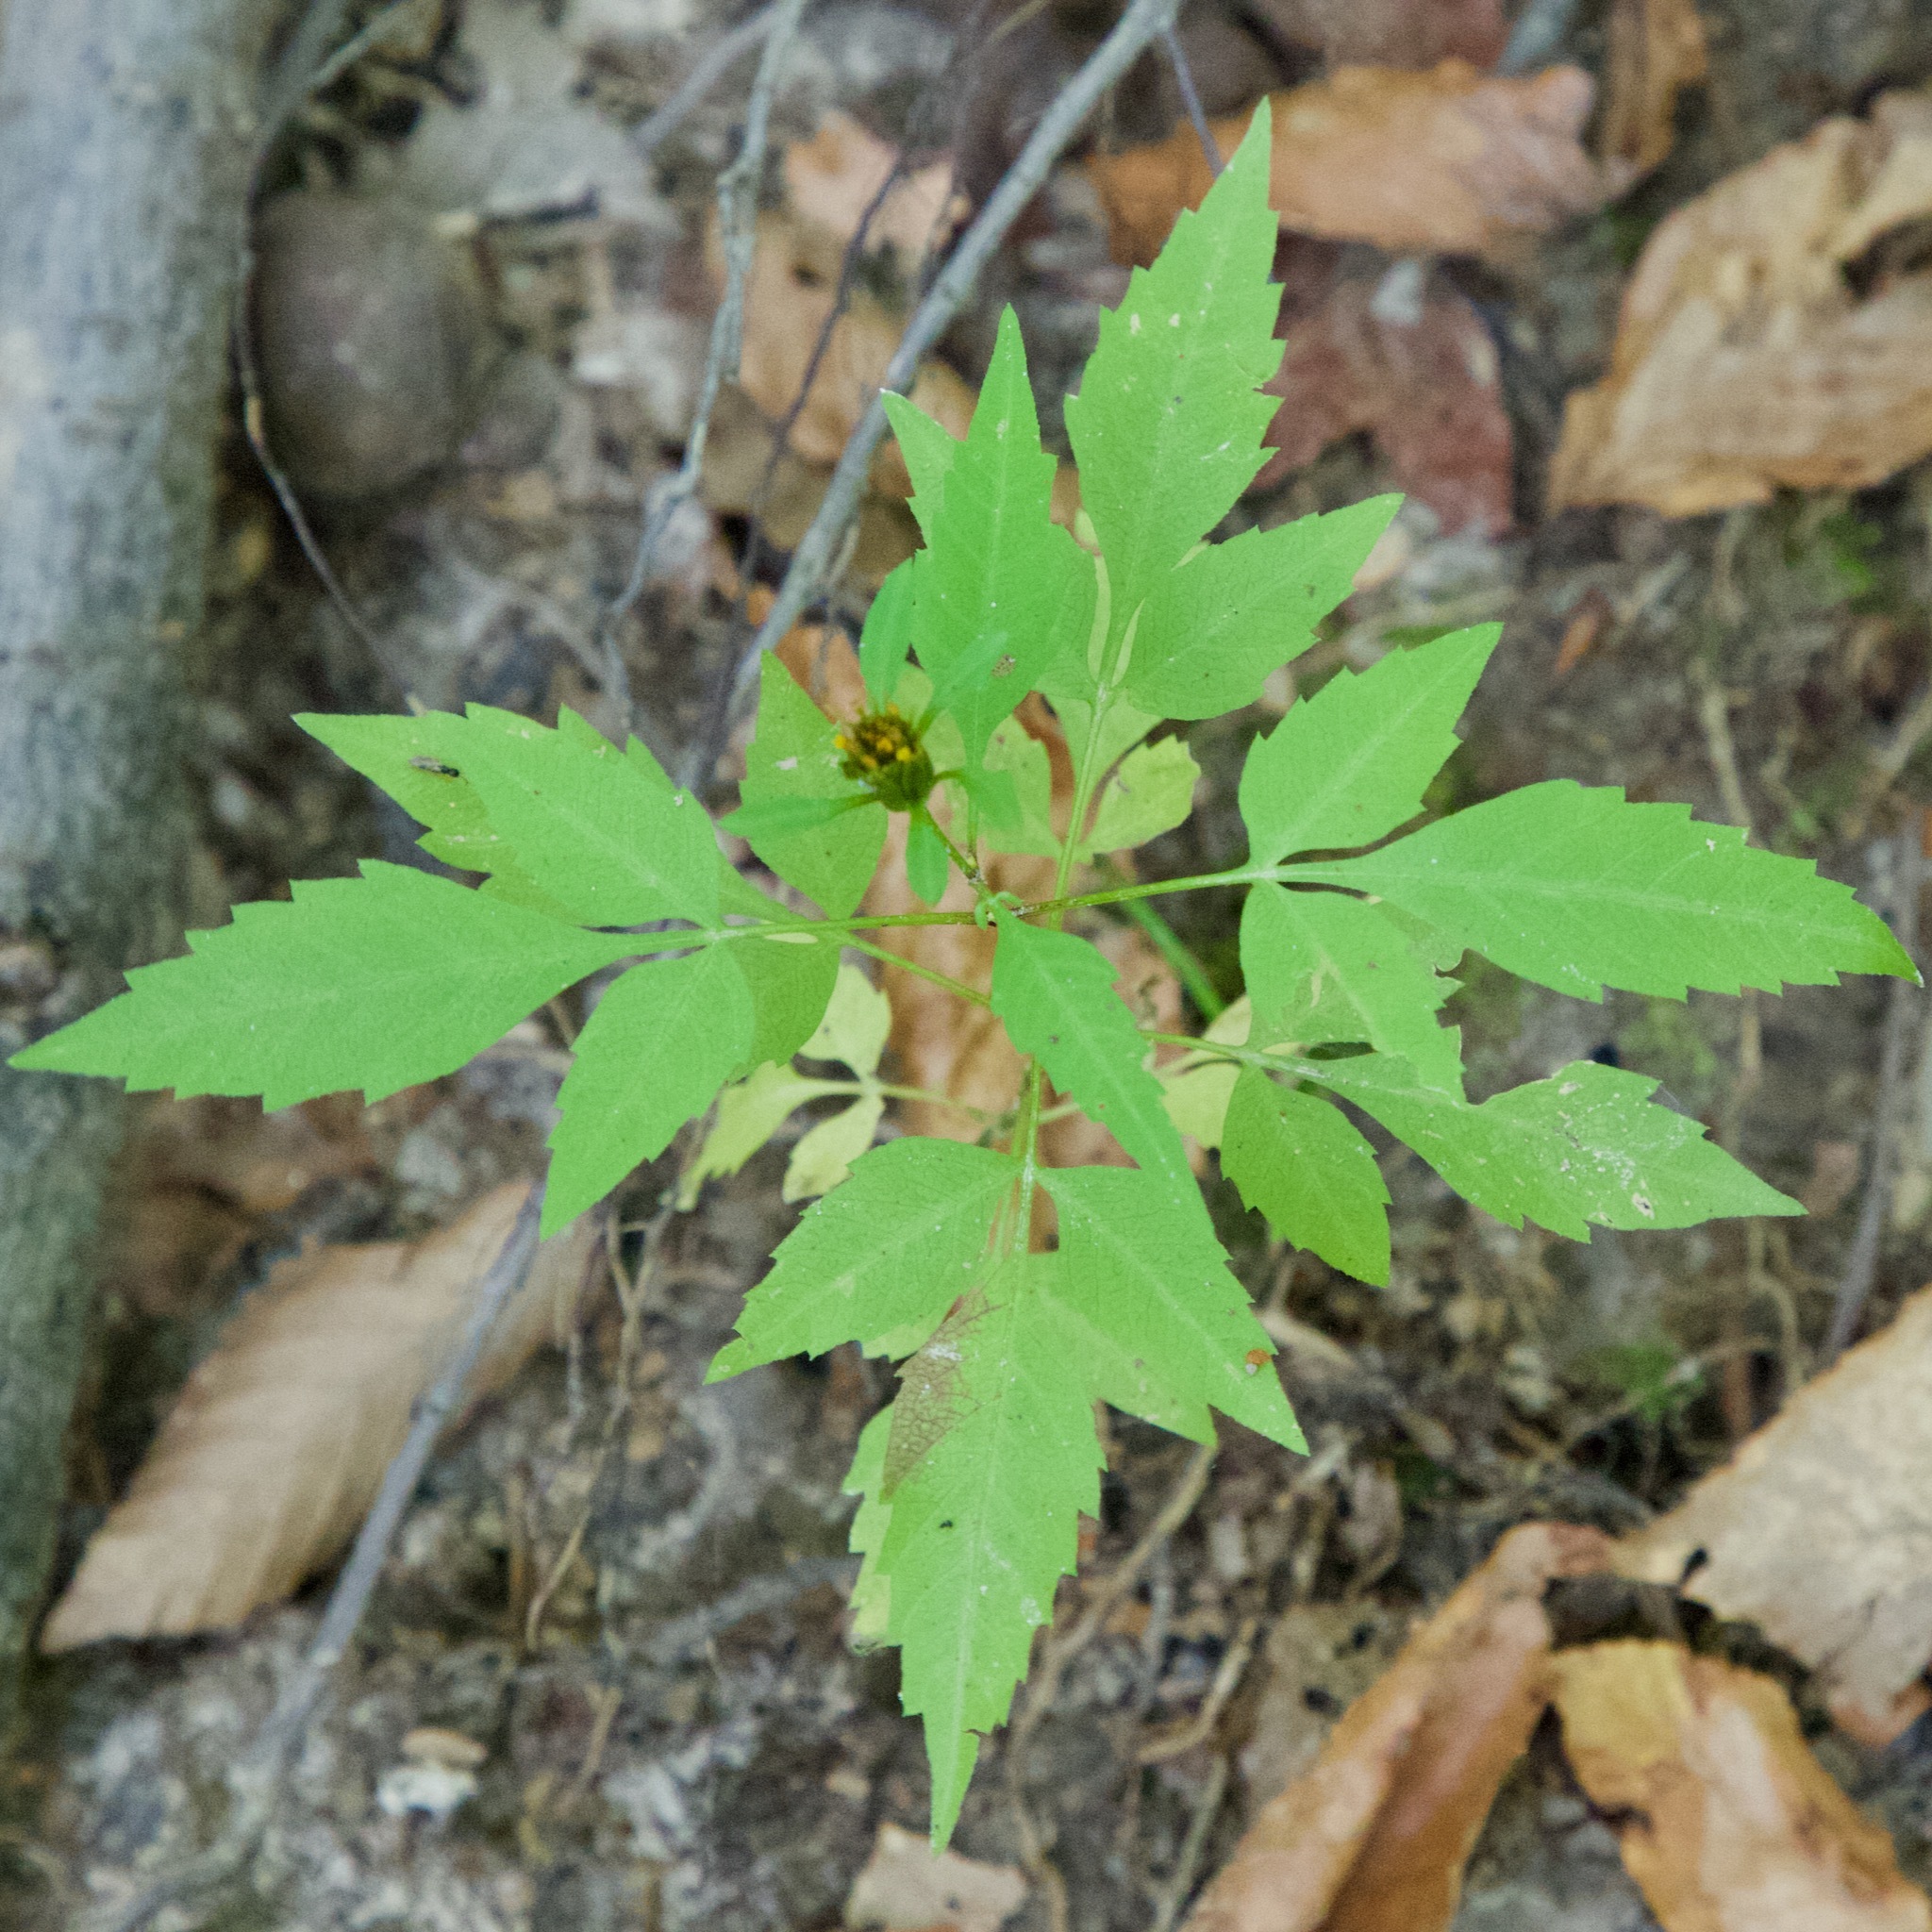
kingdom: Plantae
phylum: Tracheophyta
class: Magnoliopsida
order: Asterales
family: Asteraceae
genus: Bidens
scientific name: Bidens frondosa
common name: Beggarticks
